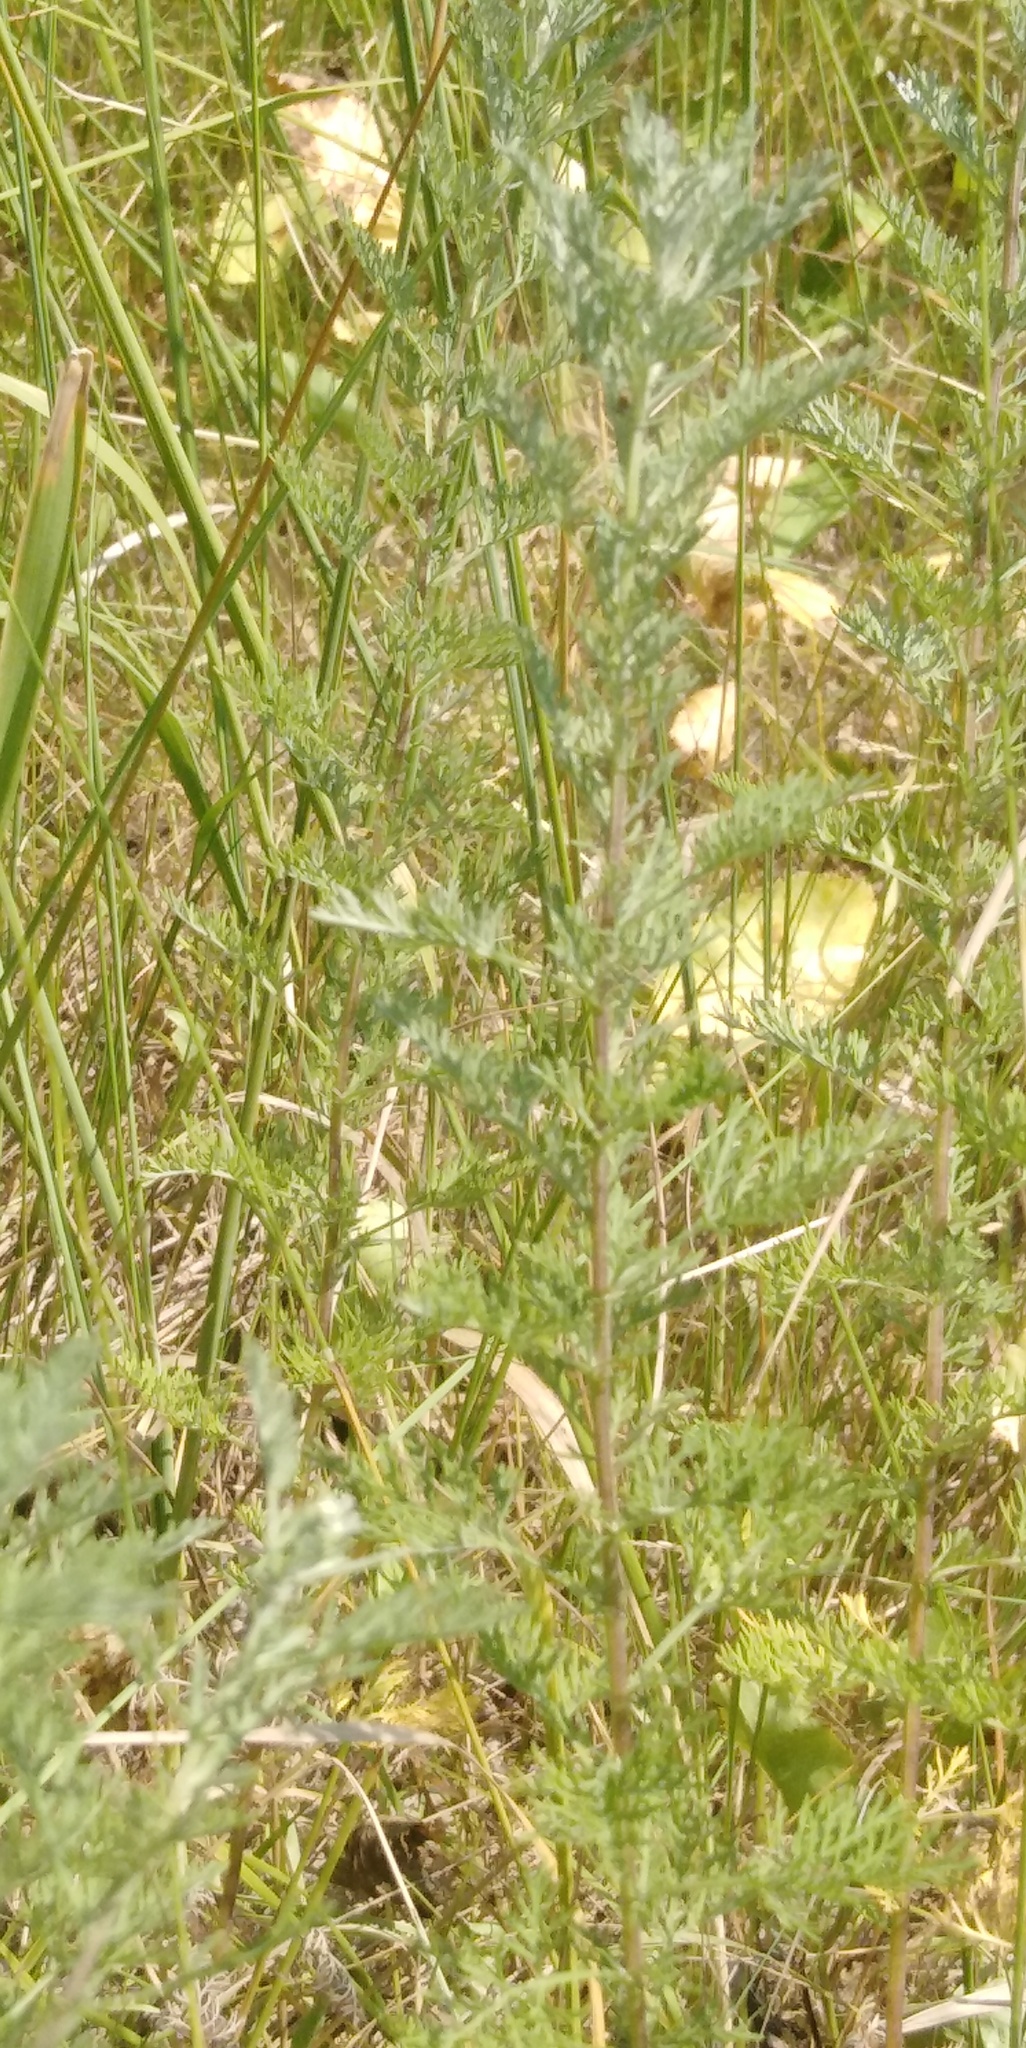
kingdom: Plantae
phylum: Tracheophyta
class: Magnoliopsida
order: Asterales
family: Asteraceae
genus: Artemisia
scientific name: Artemisia pontica
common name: Roman wormwood
